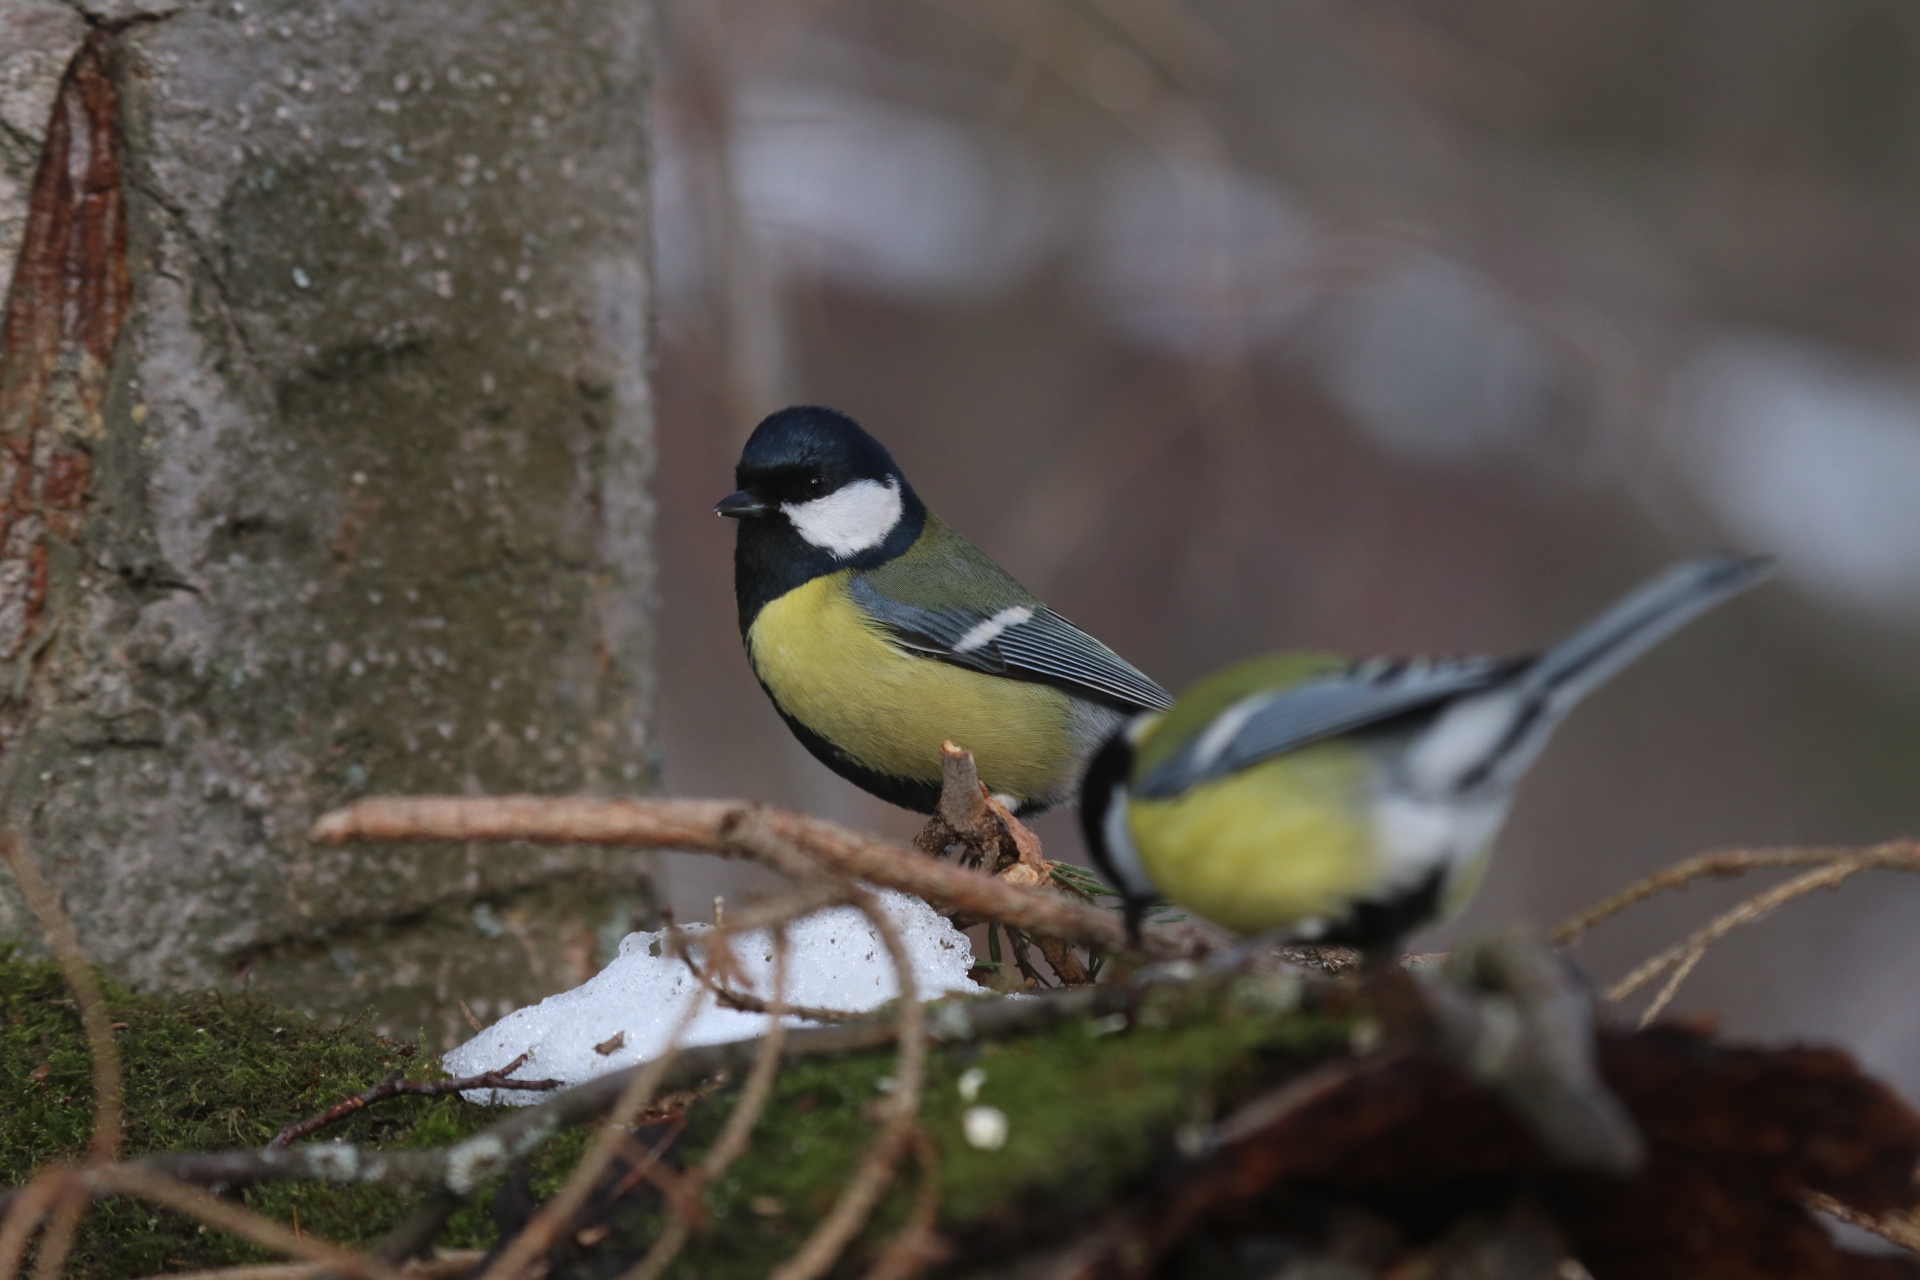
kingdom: Animalia
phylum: Chordata
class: Aves
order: Passeriformes
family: Paridae
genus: Parus
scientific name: Parus major
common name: Great tit
